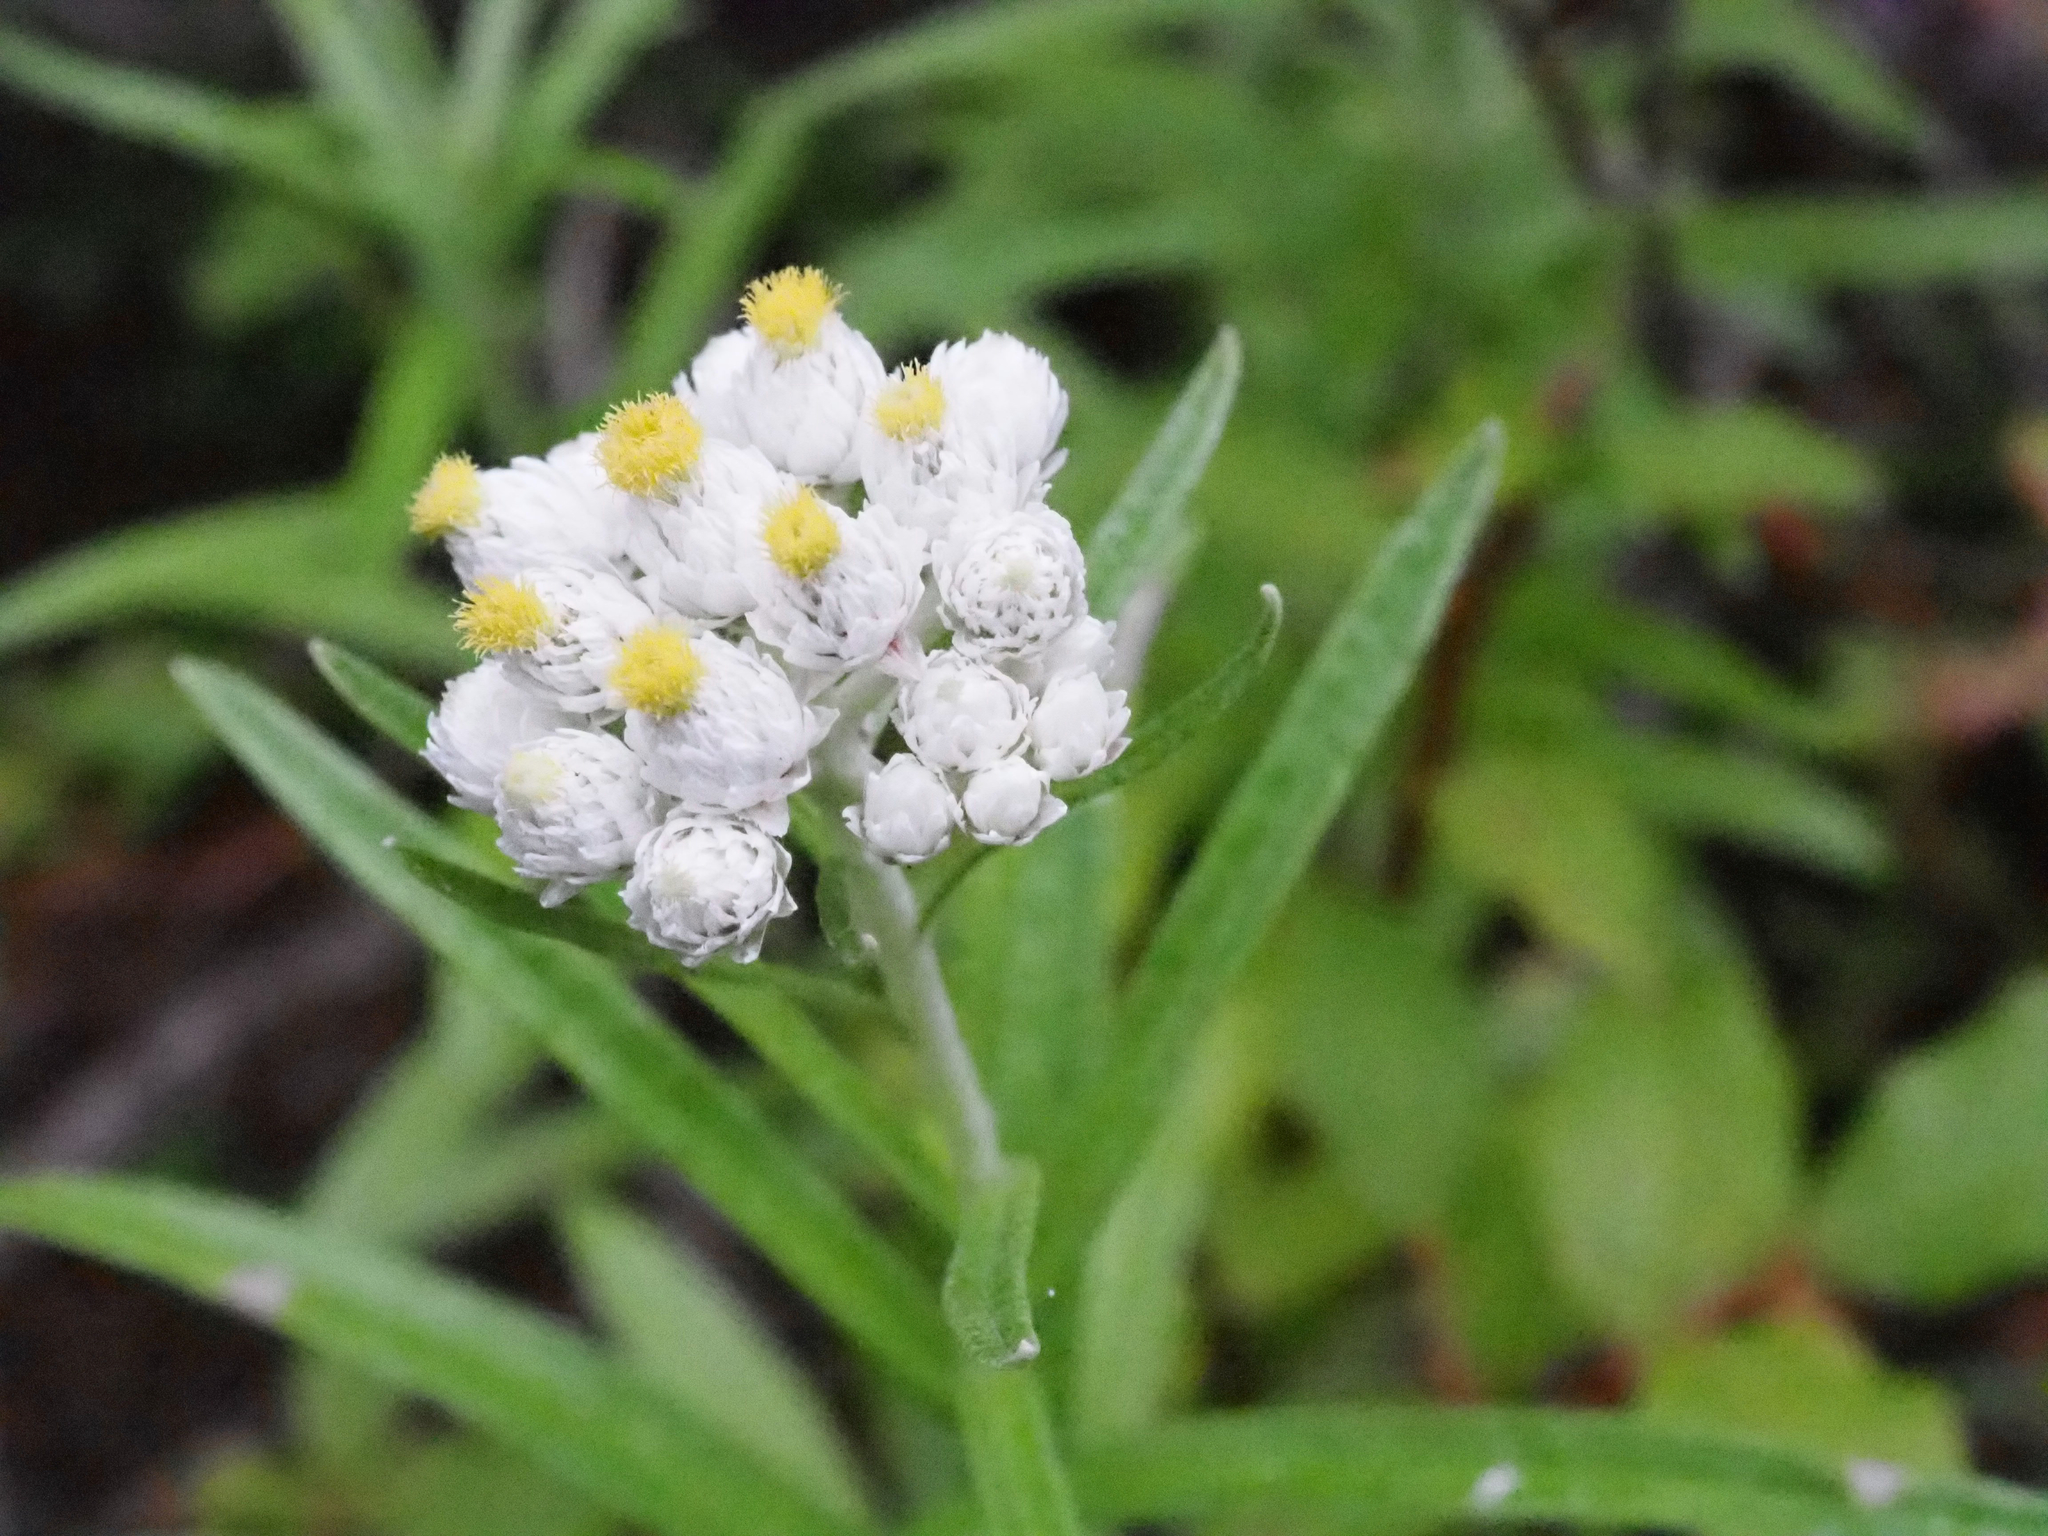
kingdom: Plantae
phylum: Tracheophyta
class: Magnoliopsida
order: Asterales
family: Asteraceae
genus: Anaphalis
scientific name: Anaphalis margaritacea
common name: Pearly everlasting
